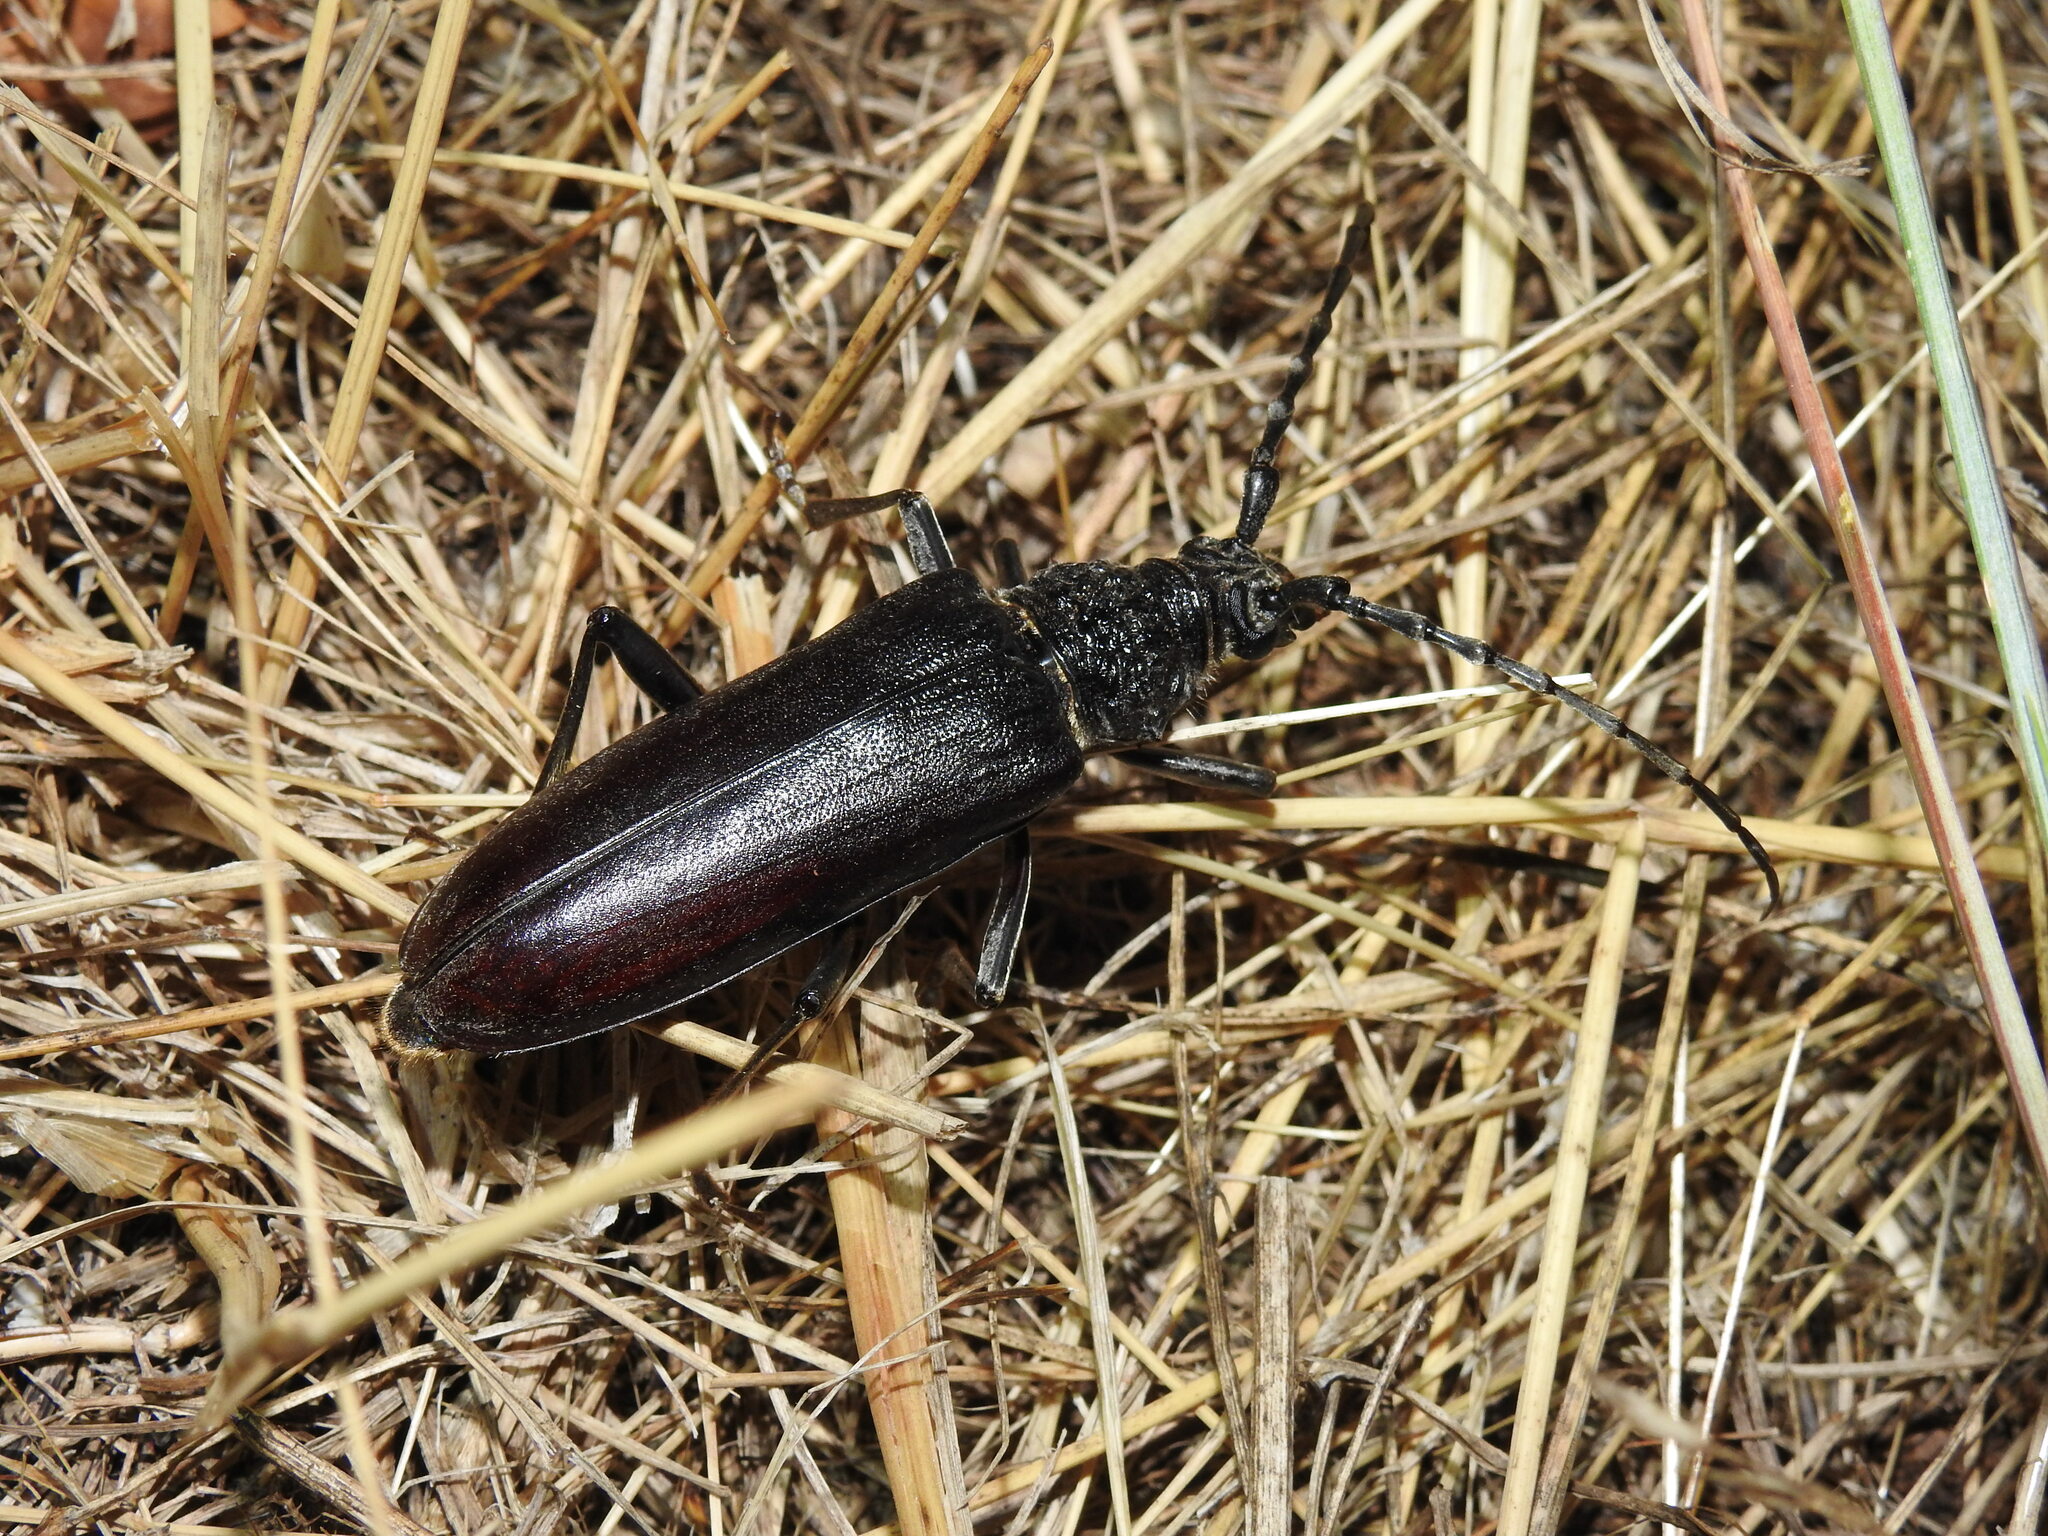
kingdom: Animalia
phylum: Arthropoda
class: Insecta
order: Coleoptera
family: Cerambycidae
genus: Cerambyx
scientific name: Cerambyx welensii
